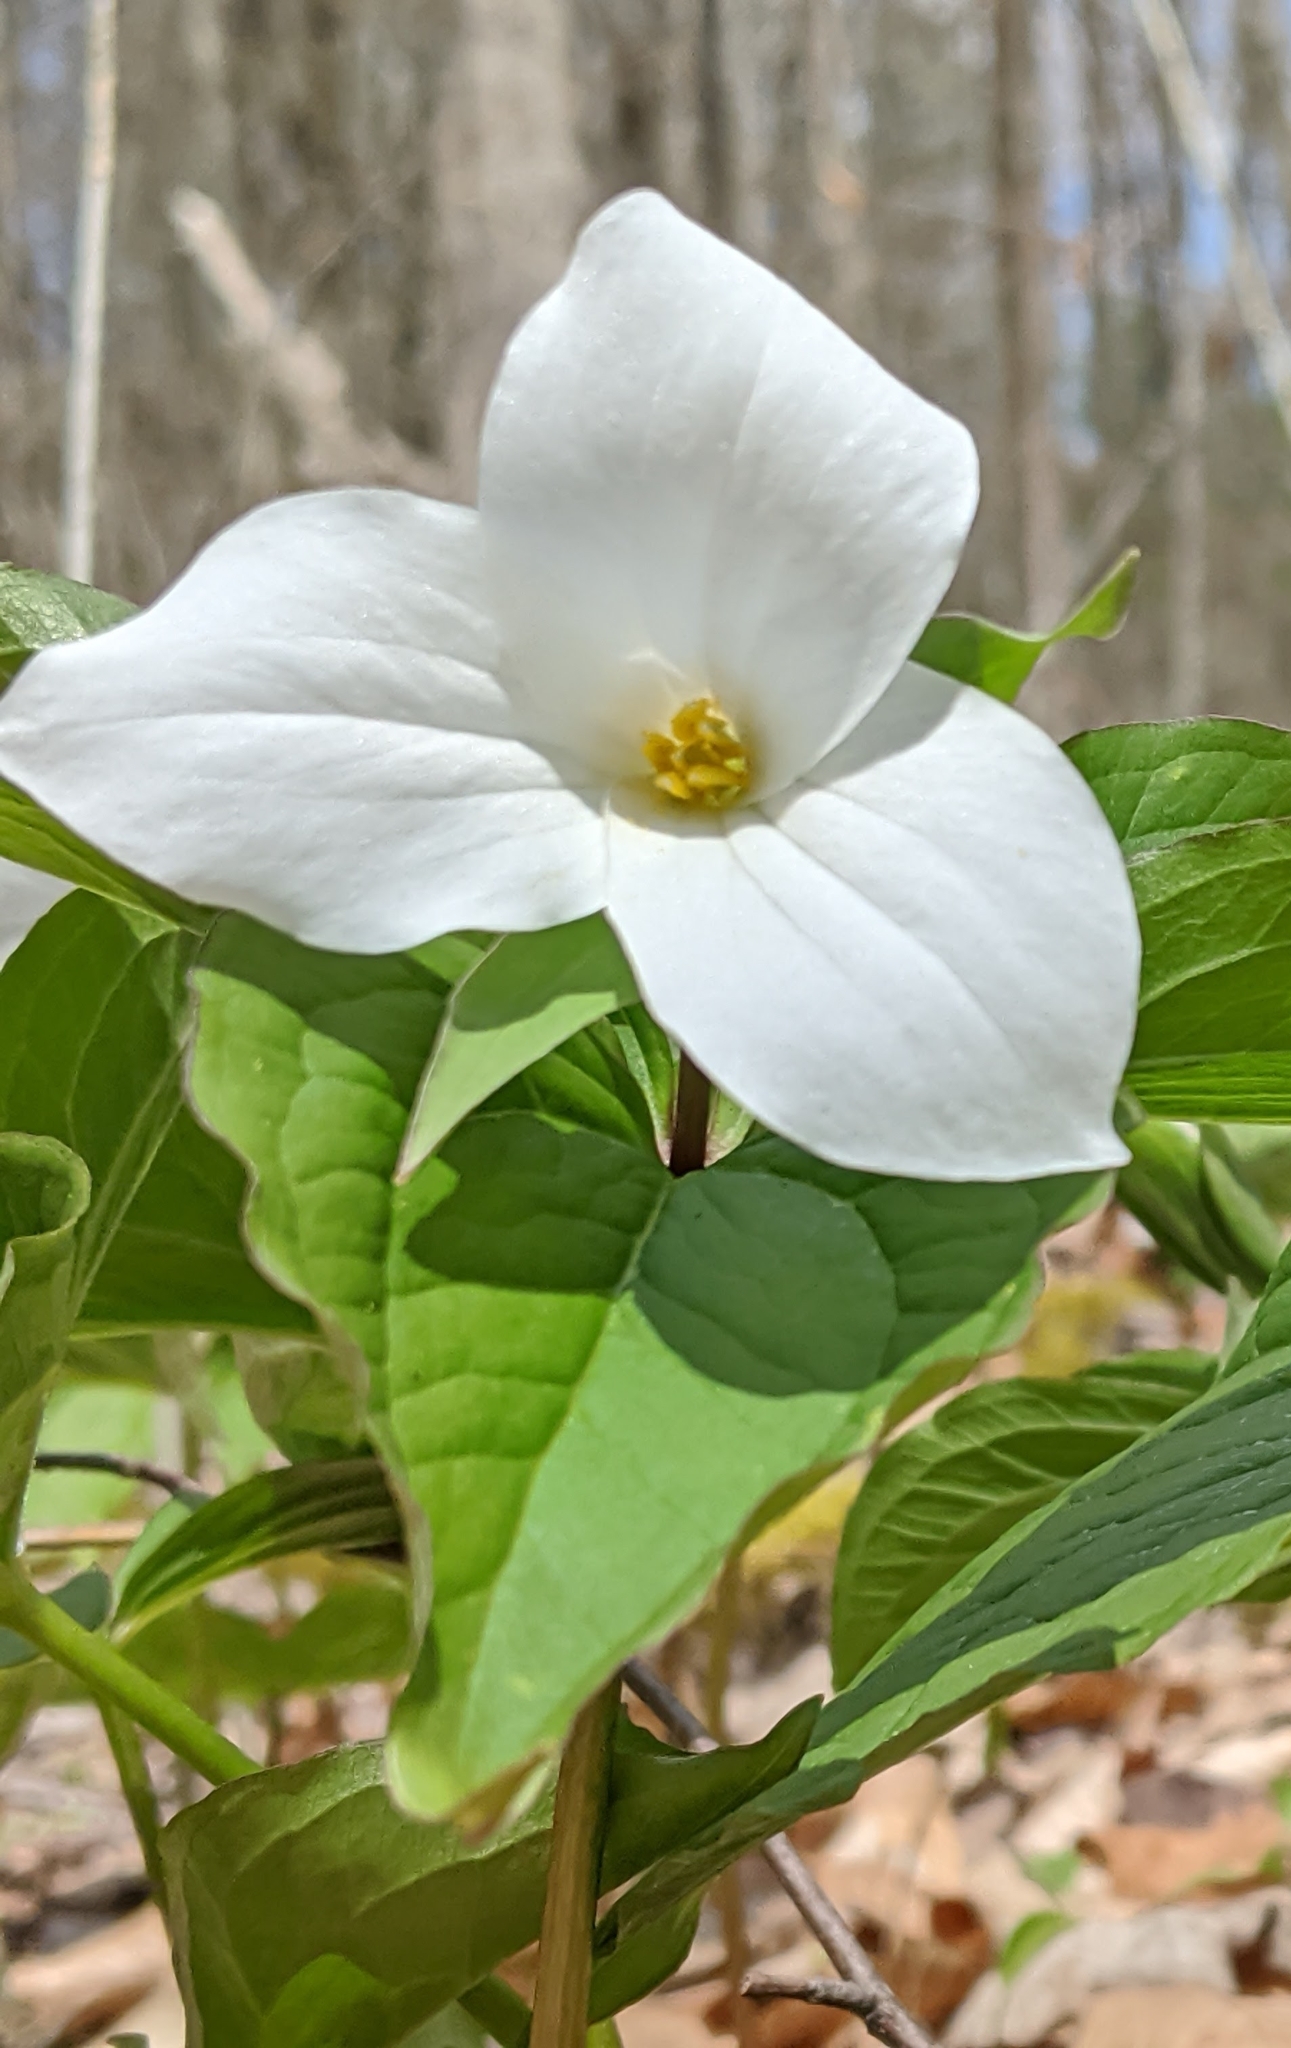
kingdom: Plantae
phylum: Tracheophyta
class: Liliopsida
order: Liliales
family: Melanthiaceae
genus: Trillium
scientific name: Trillium grandiflorum
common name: Great white trillium
